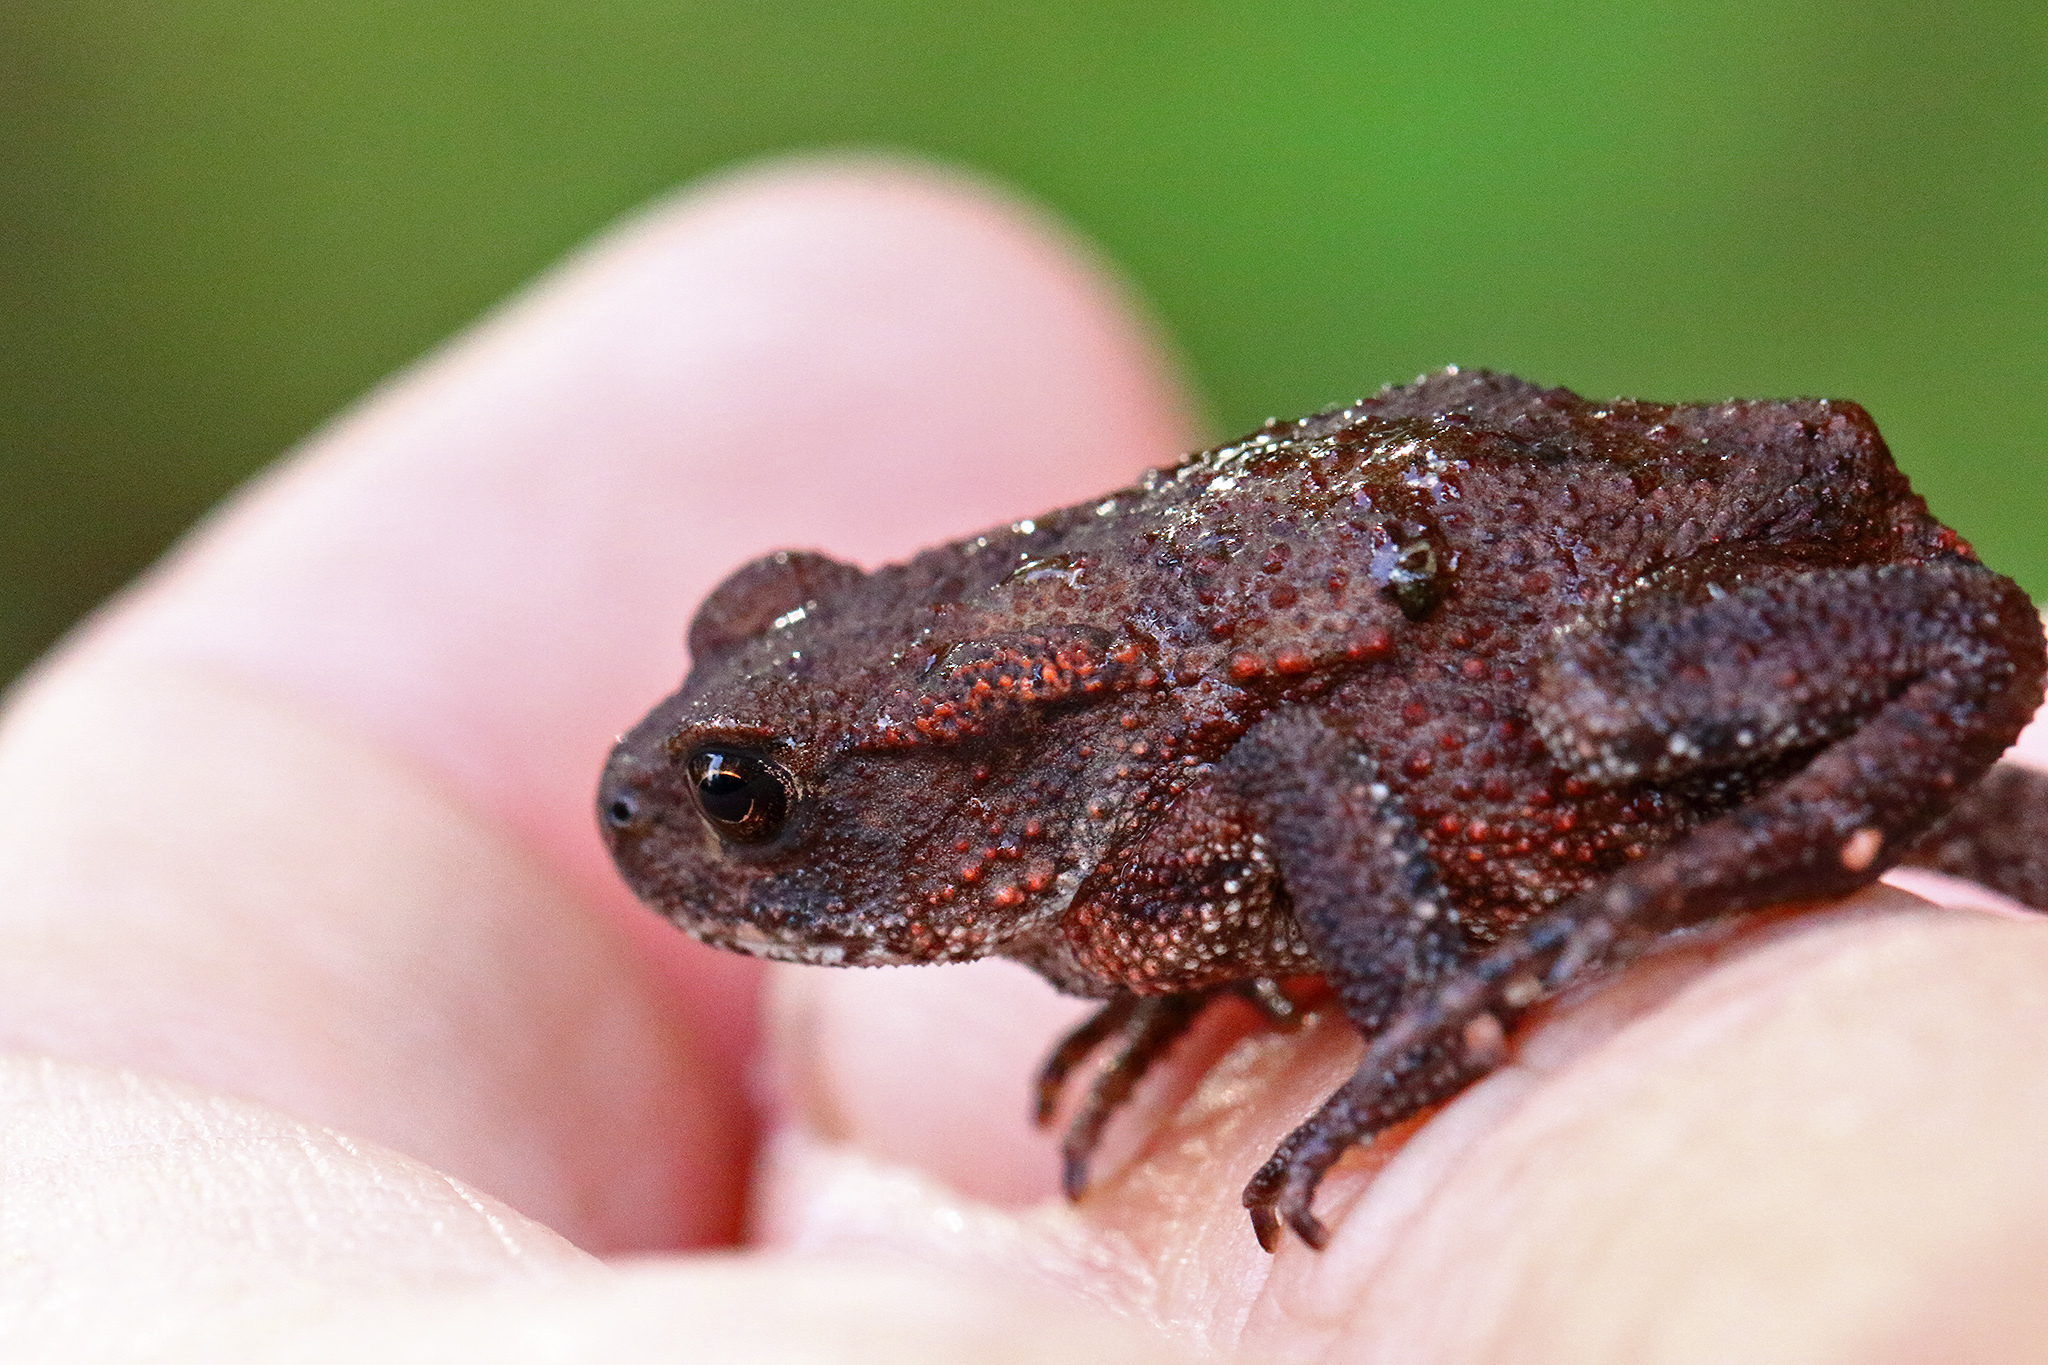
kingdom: Animalia
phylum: Chordata
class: Amphibia
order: Anura
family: Bufonidae
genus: Bufo
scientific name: Bufo bufo
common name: Common toad
